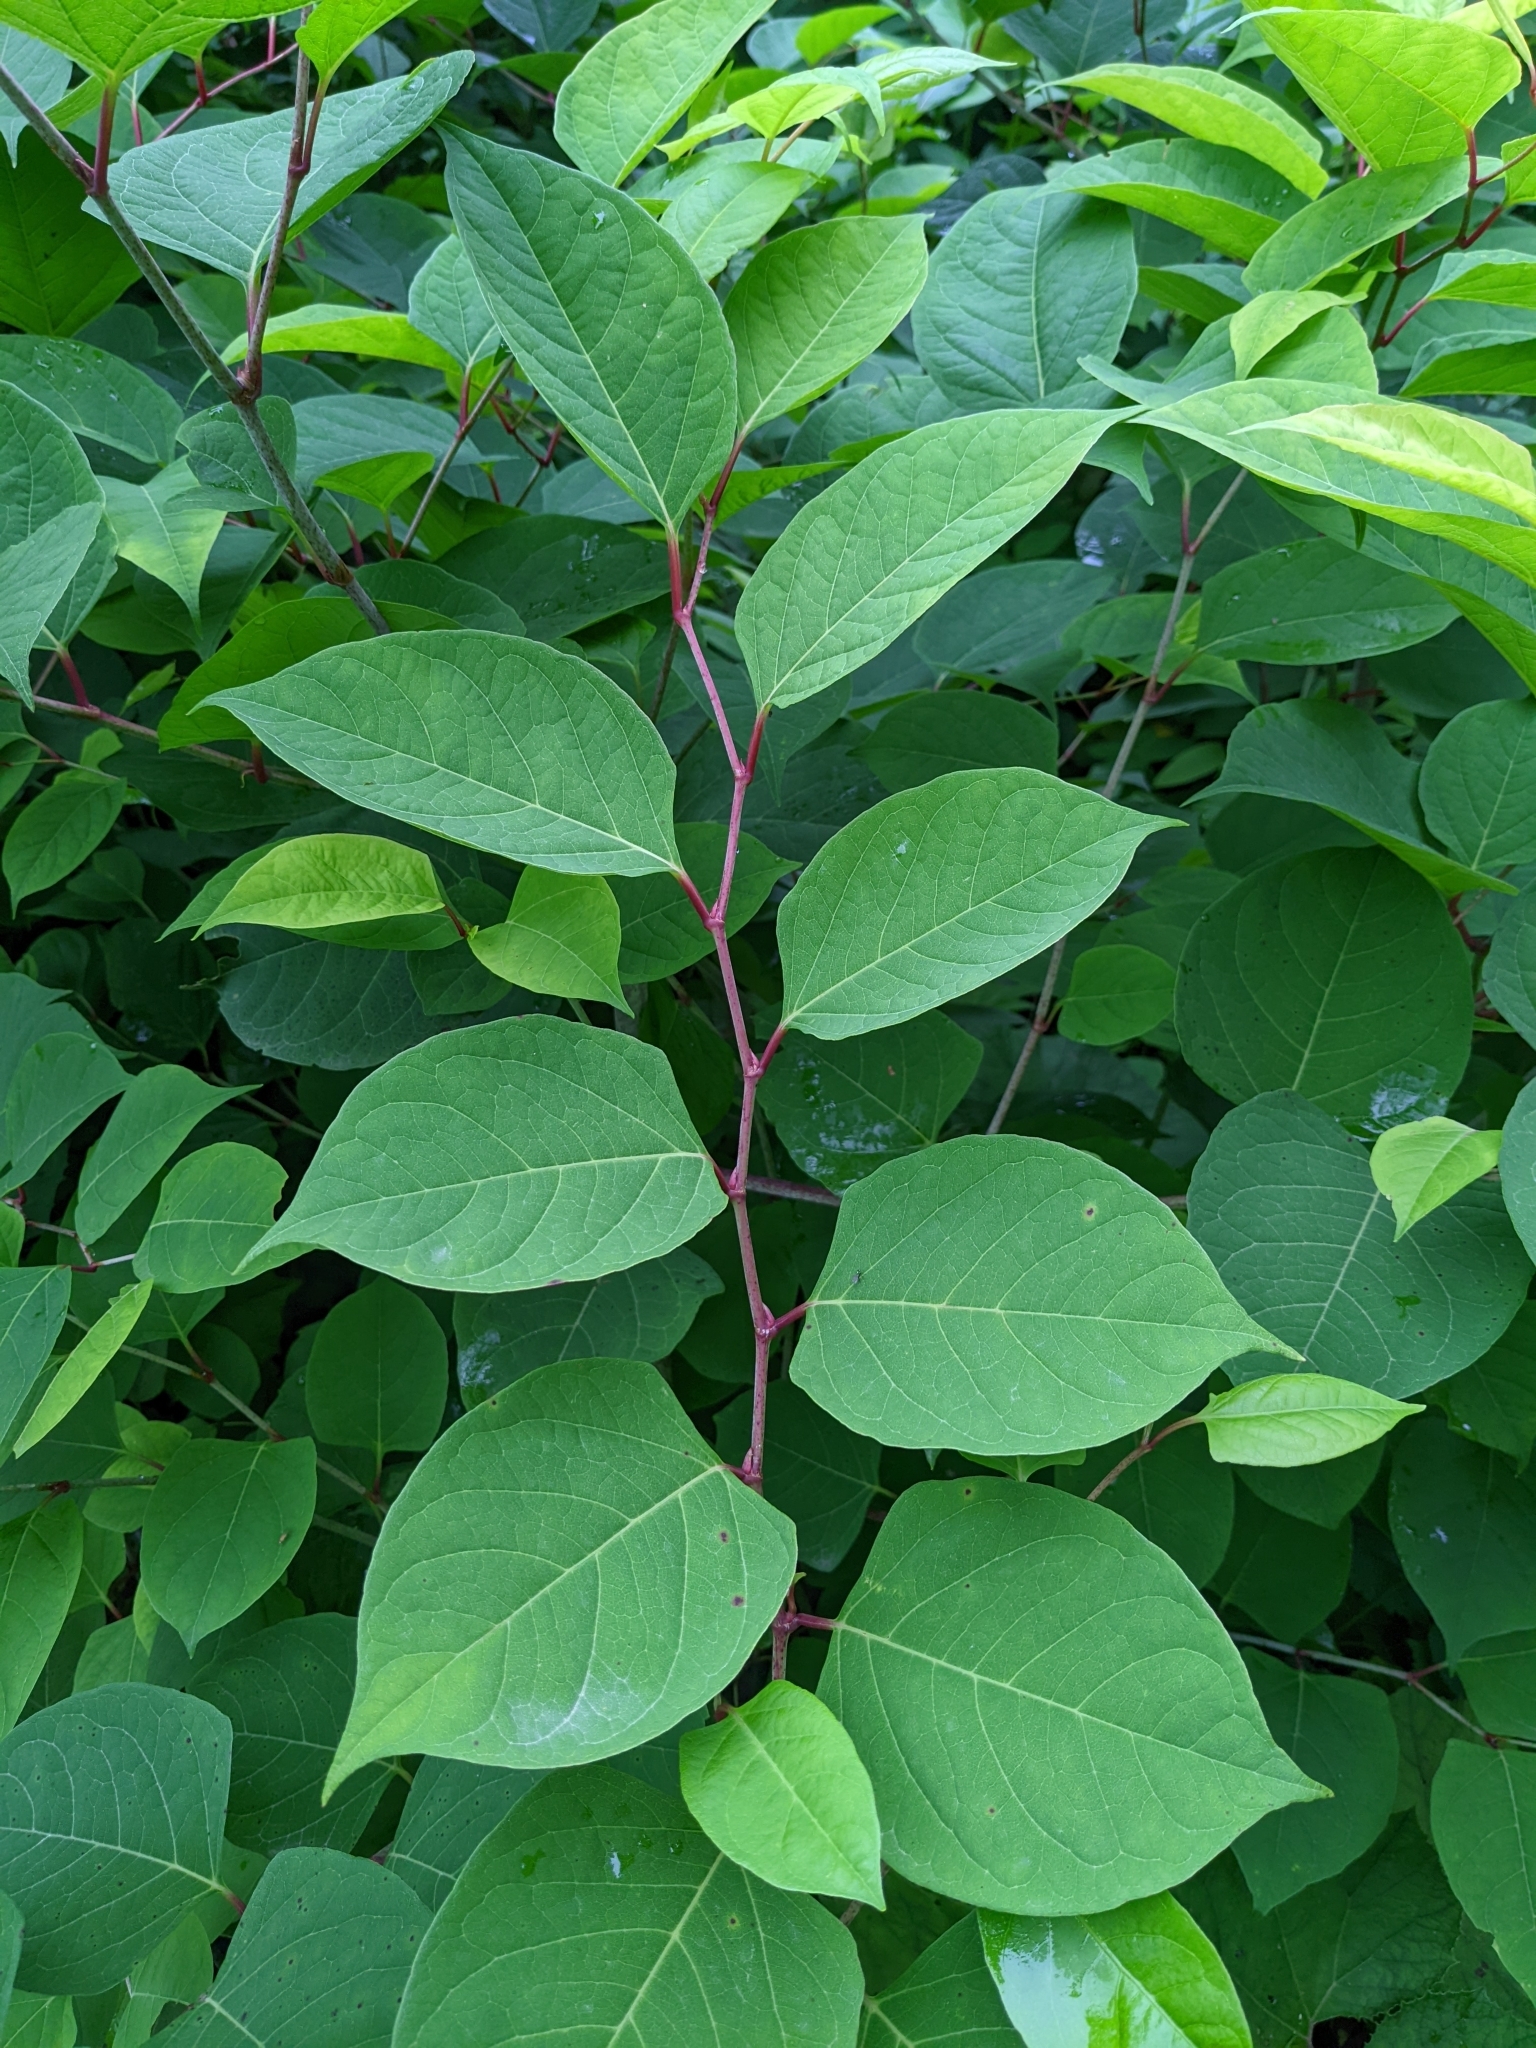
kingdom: Plantae
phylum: Tracheophyta
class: Magnoliopsida
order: Caryophyllales
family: Polygonaceae
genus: Reynoutria
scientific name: Reynoutria japonica
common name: Japanese knotweed
